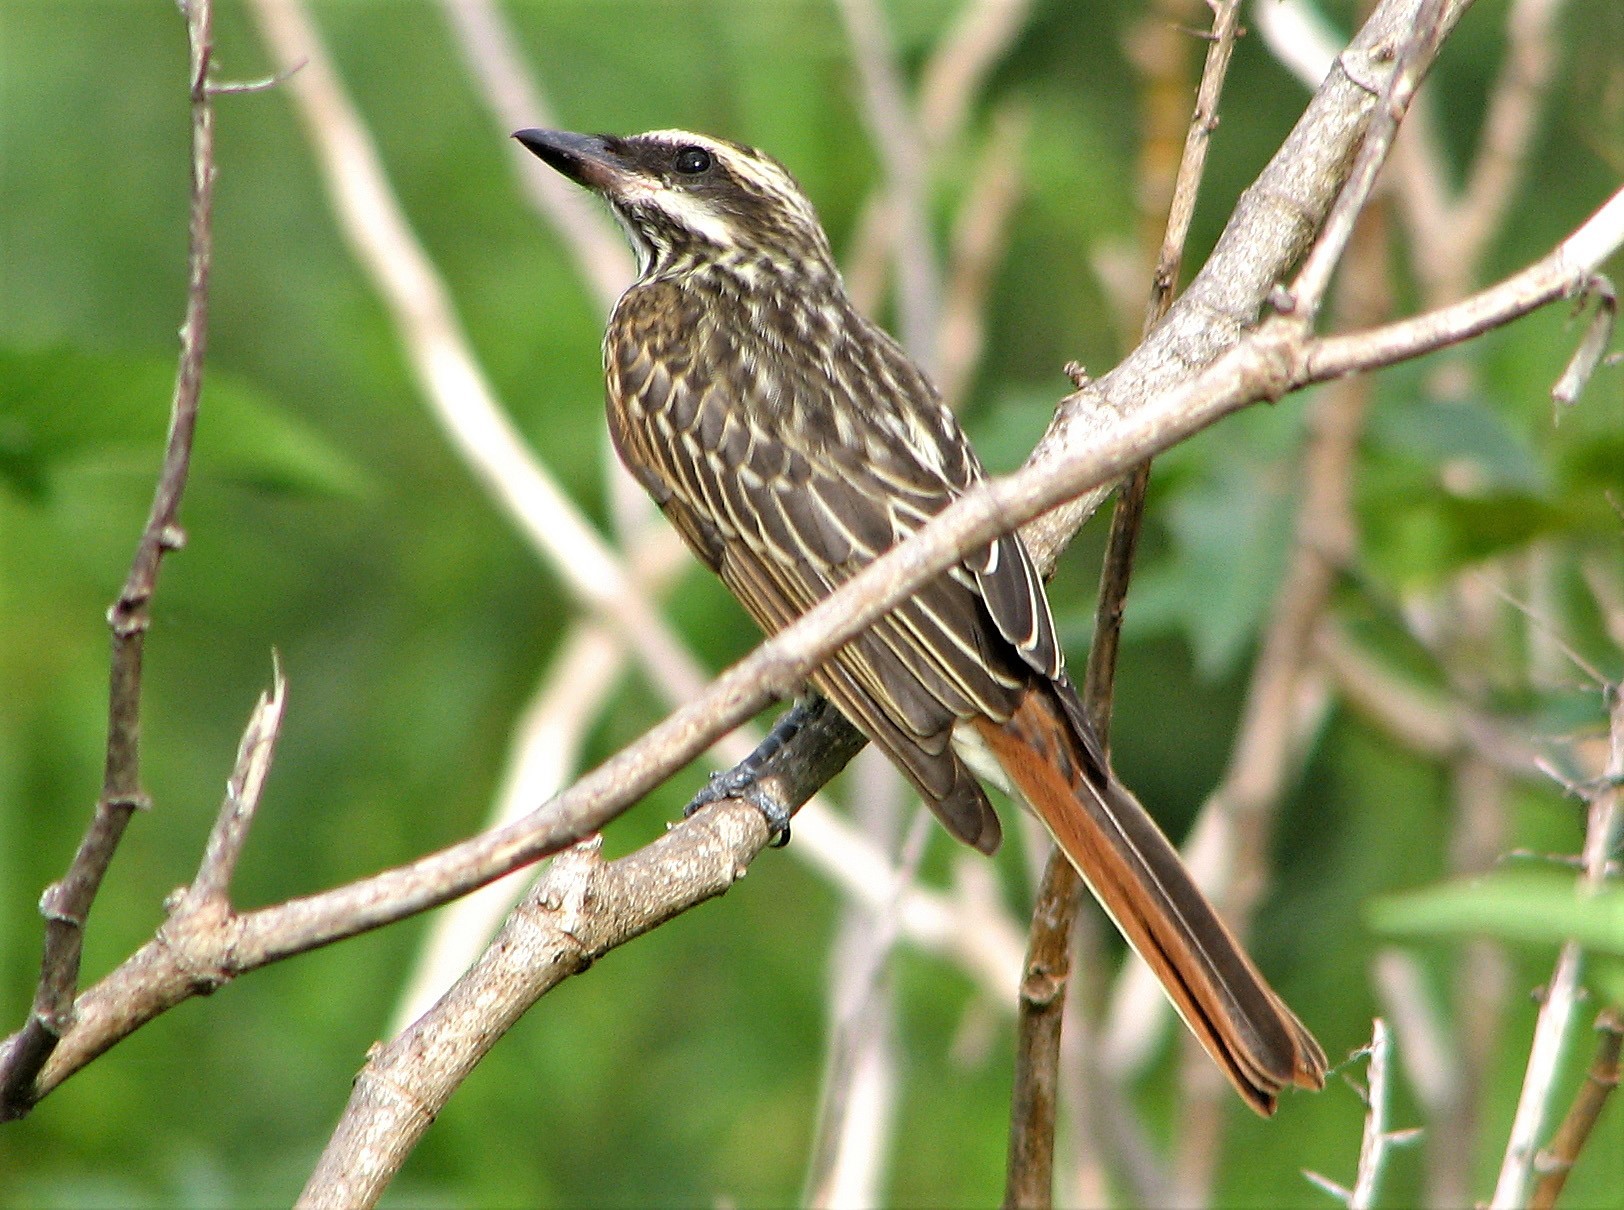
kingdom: Animalia
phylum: Chordata
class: Aves
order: Passeriformes
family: Tyrannidae
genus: Myiodynastes
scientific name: Myiodynastes maculatus
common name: Streaked flycatcher
